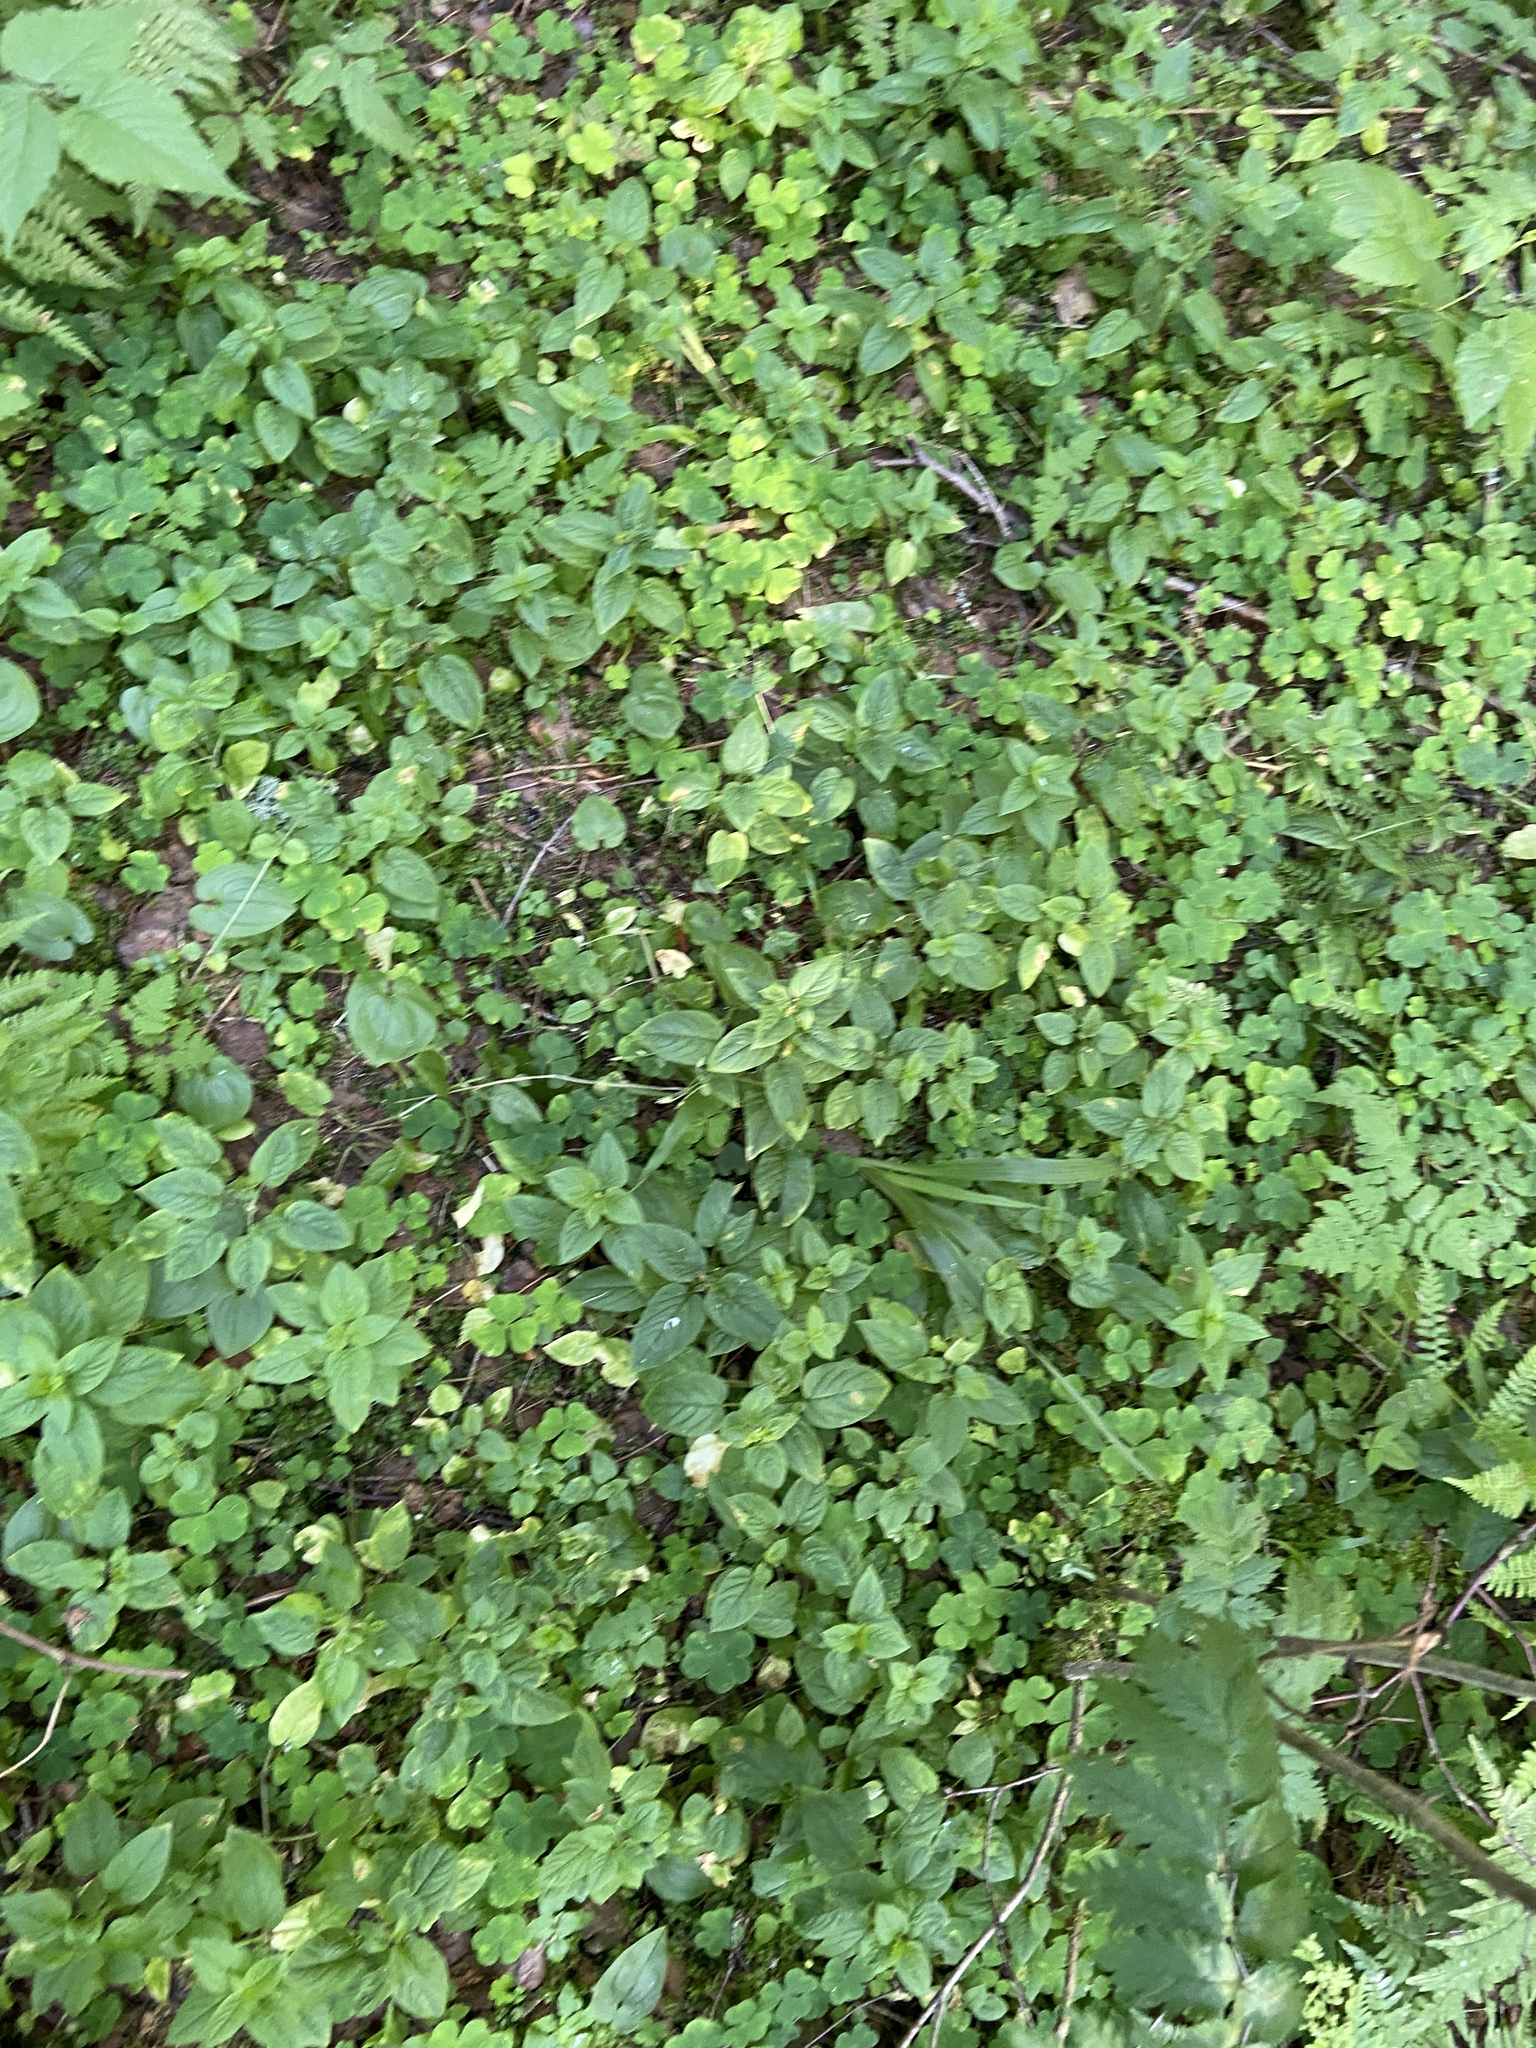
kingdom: Plantae
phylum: Tracheophyta
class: Magnoliopsida
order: Caryophyllales
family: Caryophyllaceae
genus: Stellaria
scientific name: Stellaria nemorum
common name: Wood stitchwort
